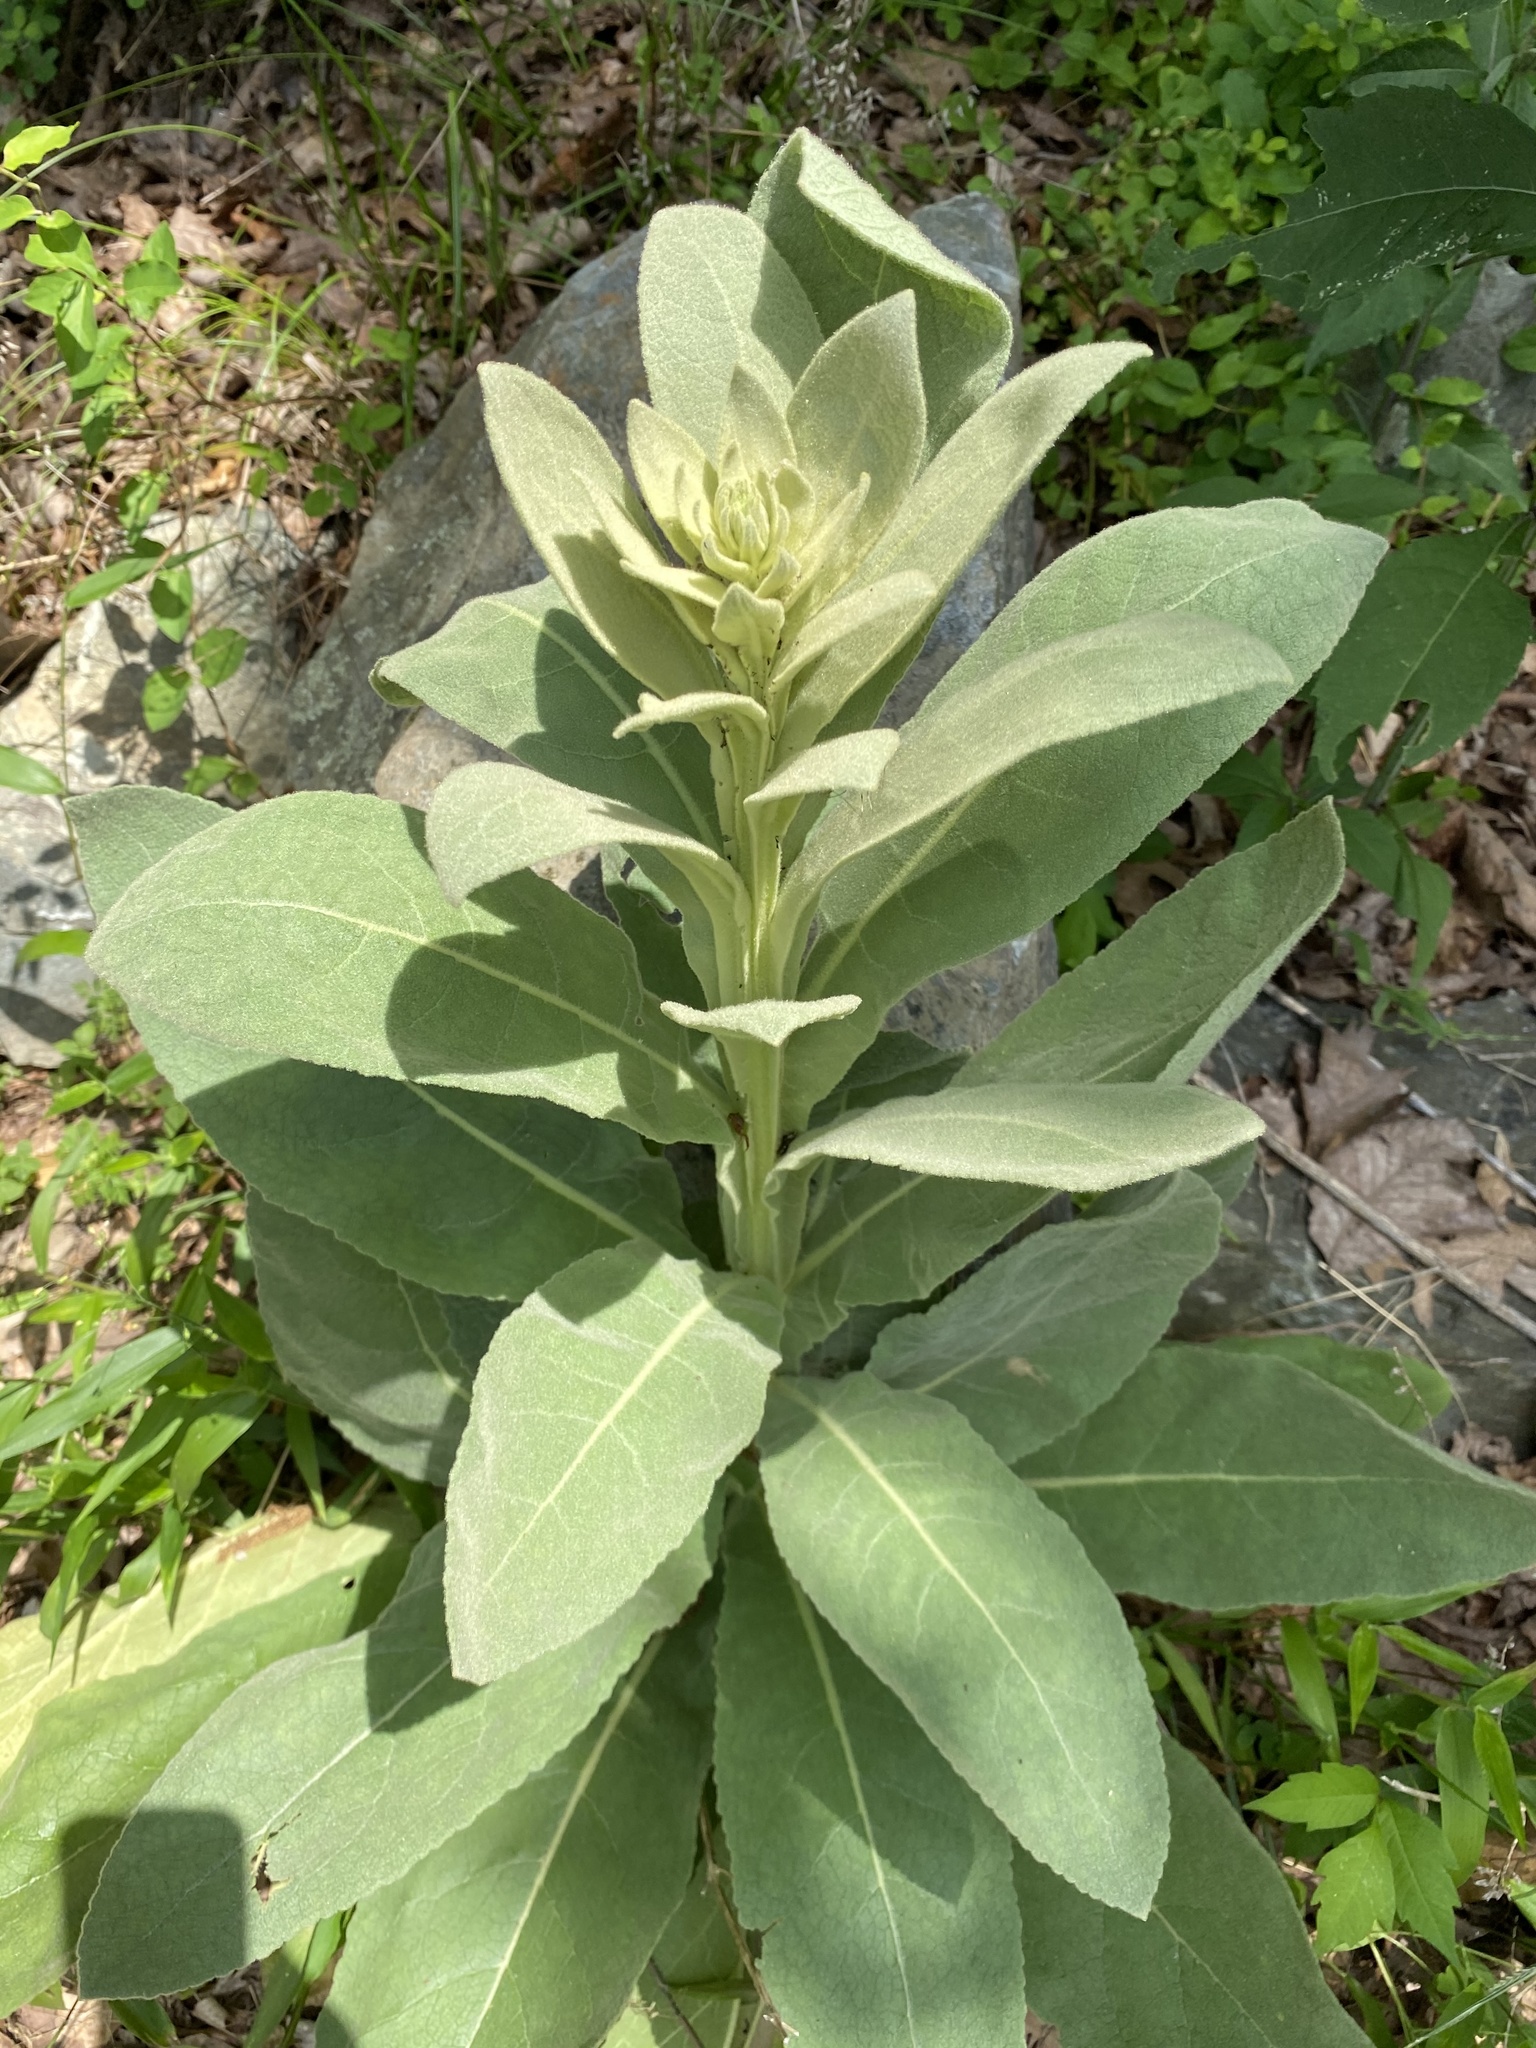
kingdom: Plantae
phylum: Tracheophyta
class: Magnoliopsida
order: Lamiales
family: Scrophulariaceae
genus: Verbascum
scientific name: Verbascum thapsus
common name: Common mullein
